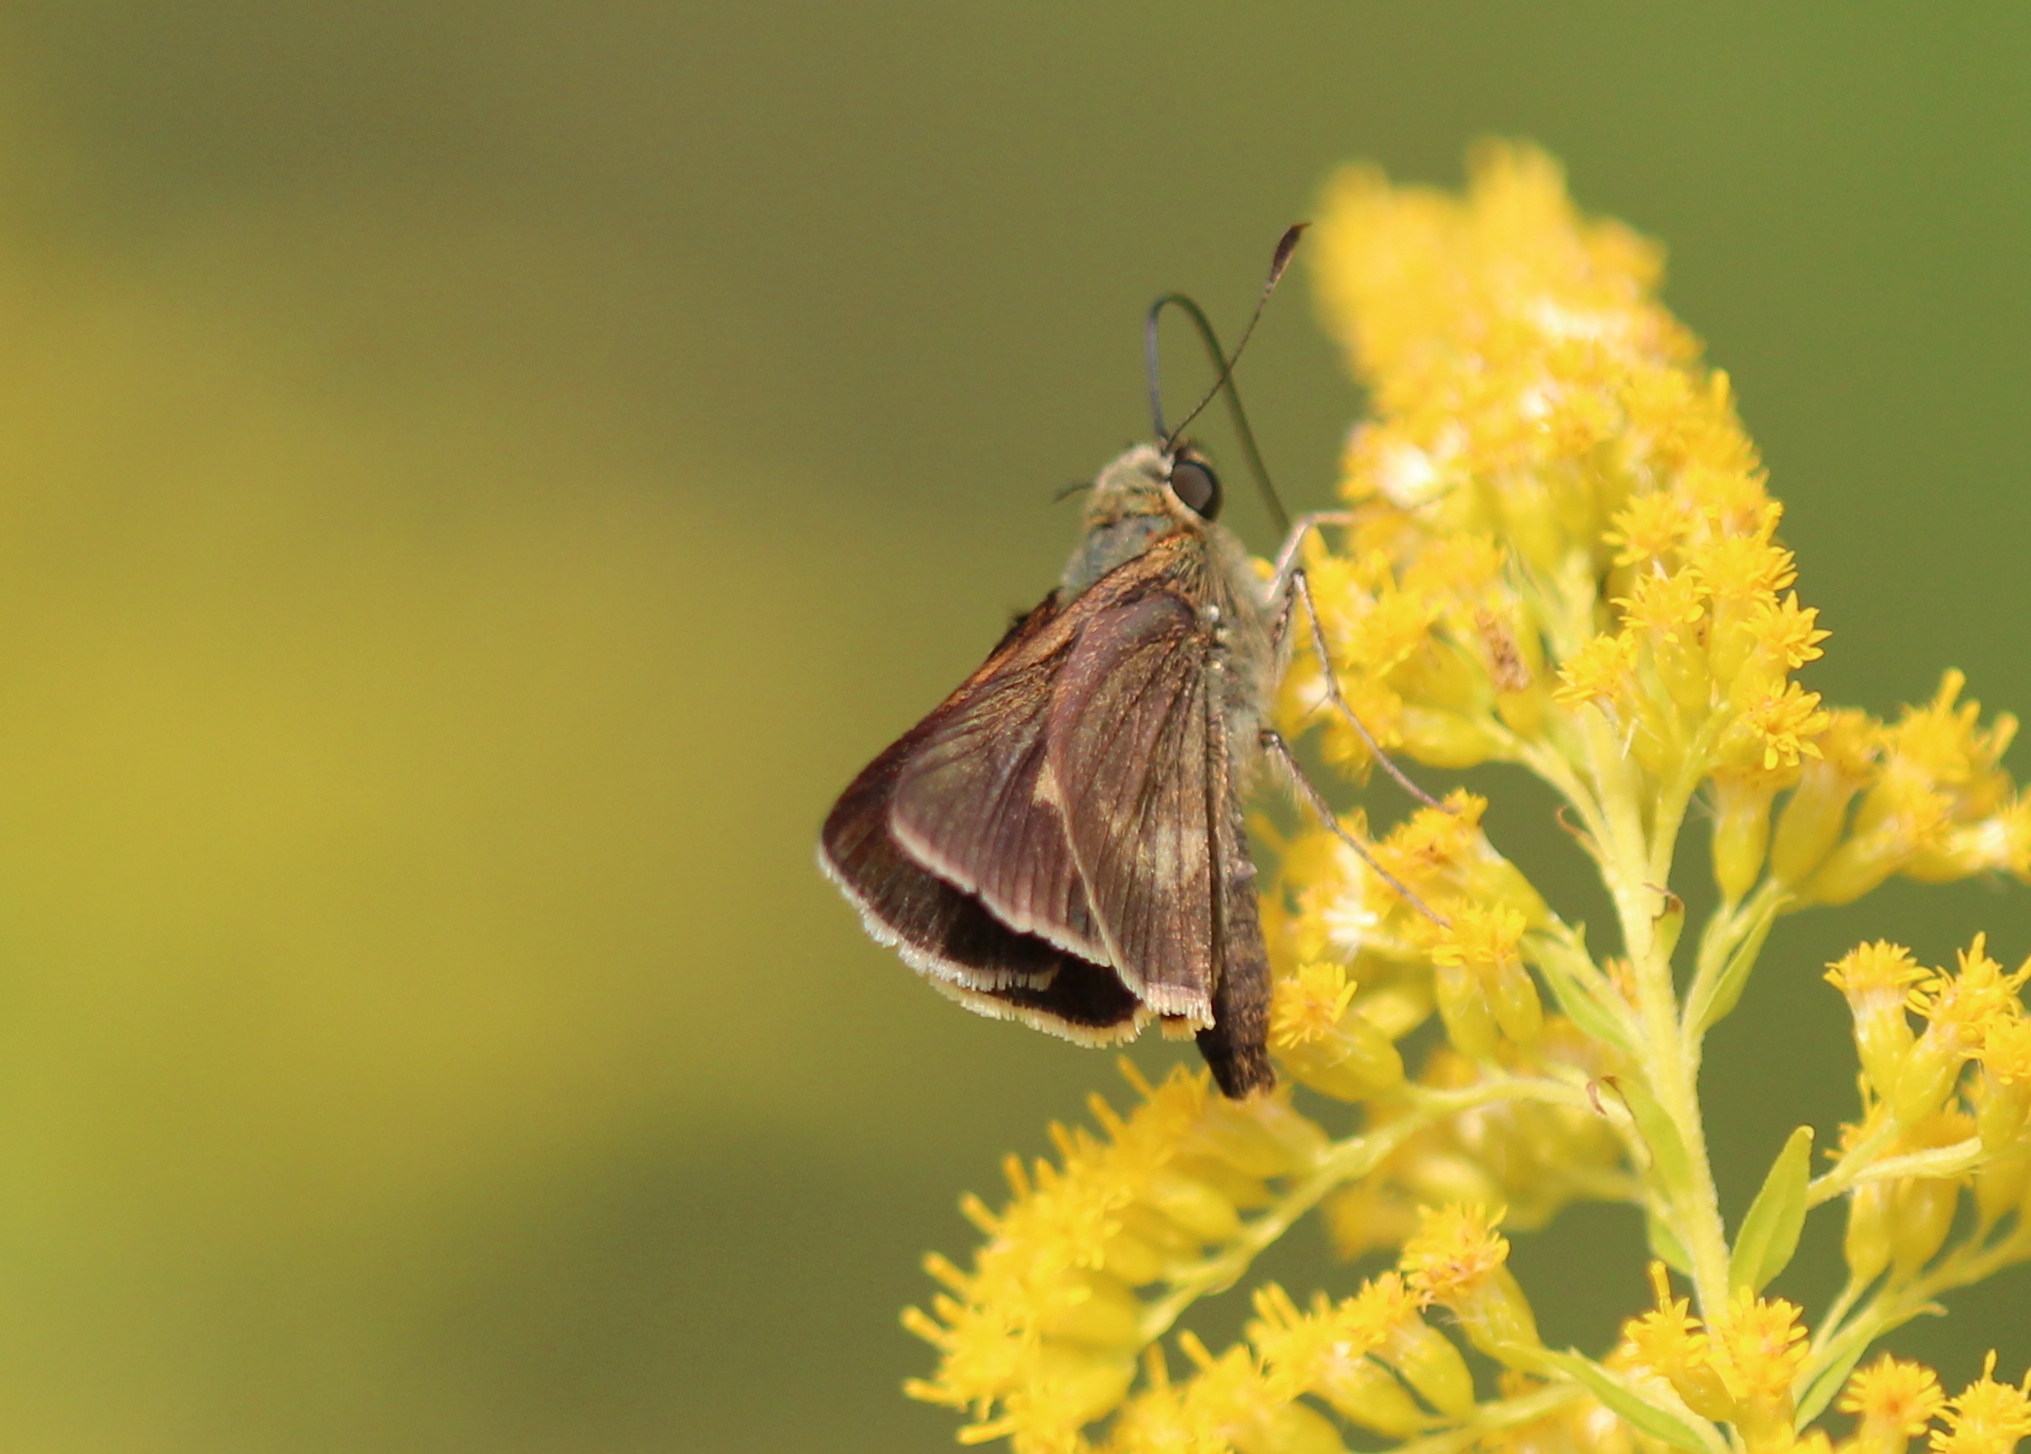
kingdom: Animalia
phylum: Arthropoda
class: Insecta
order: Lepidoptera
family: Hesperiidae
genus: Polites
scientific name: Polites egeremet
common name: Northern broken-dash
